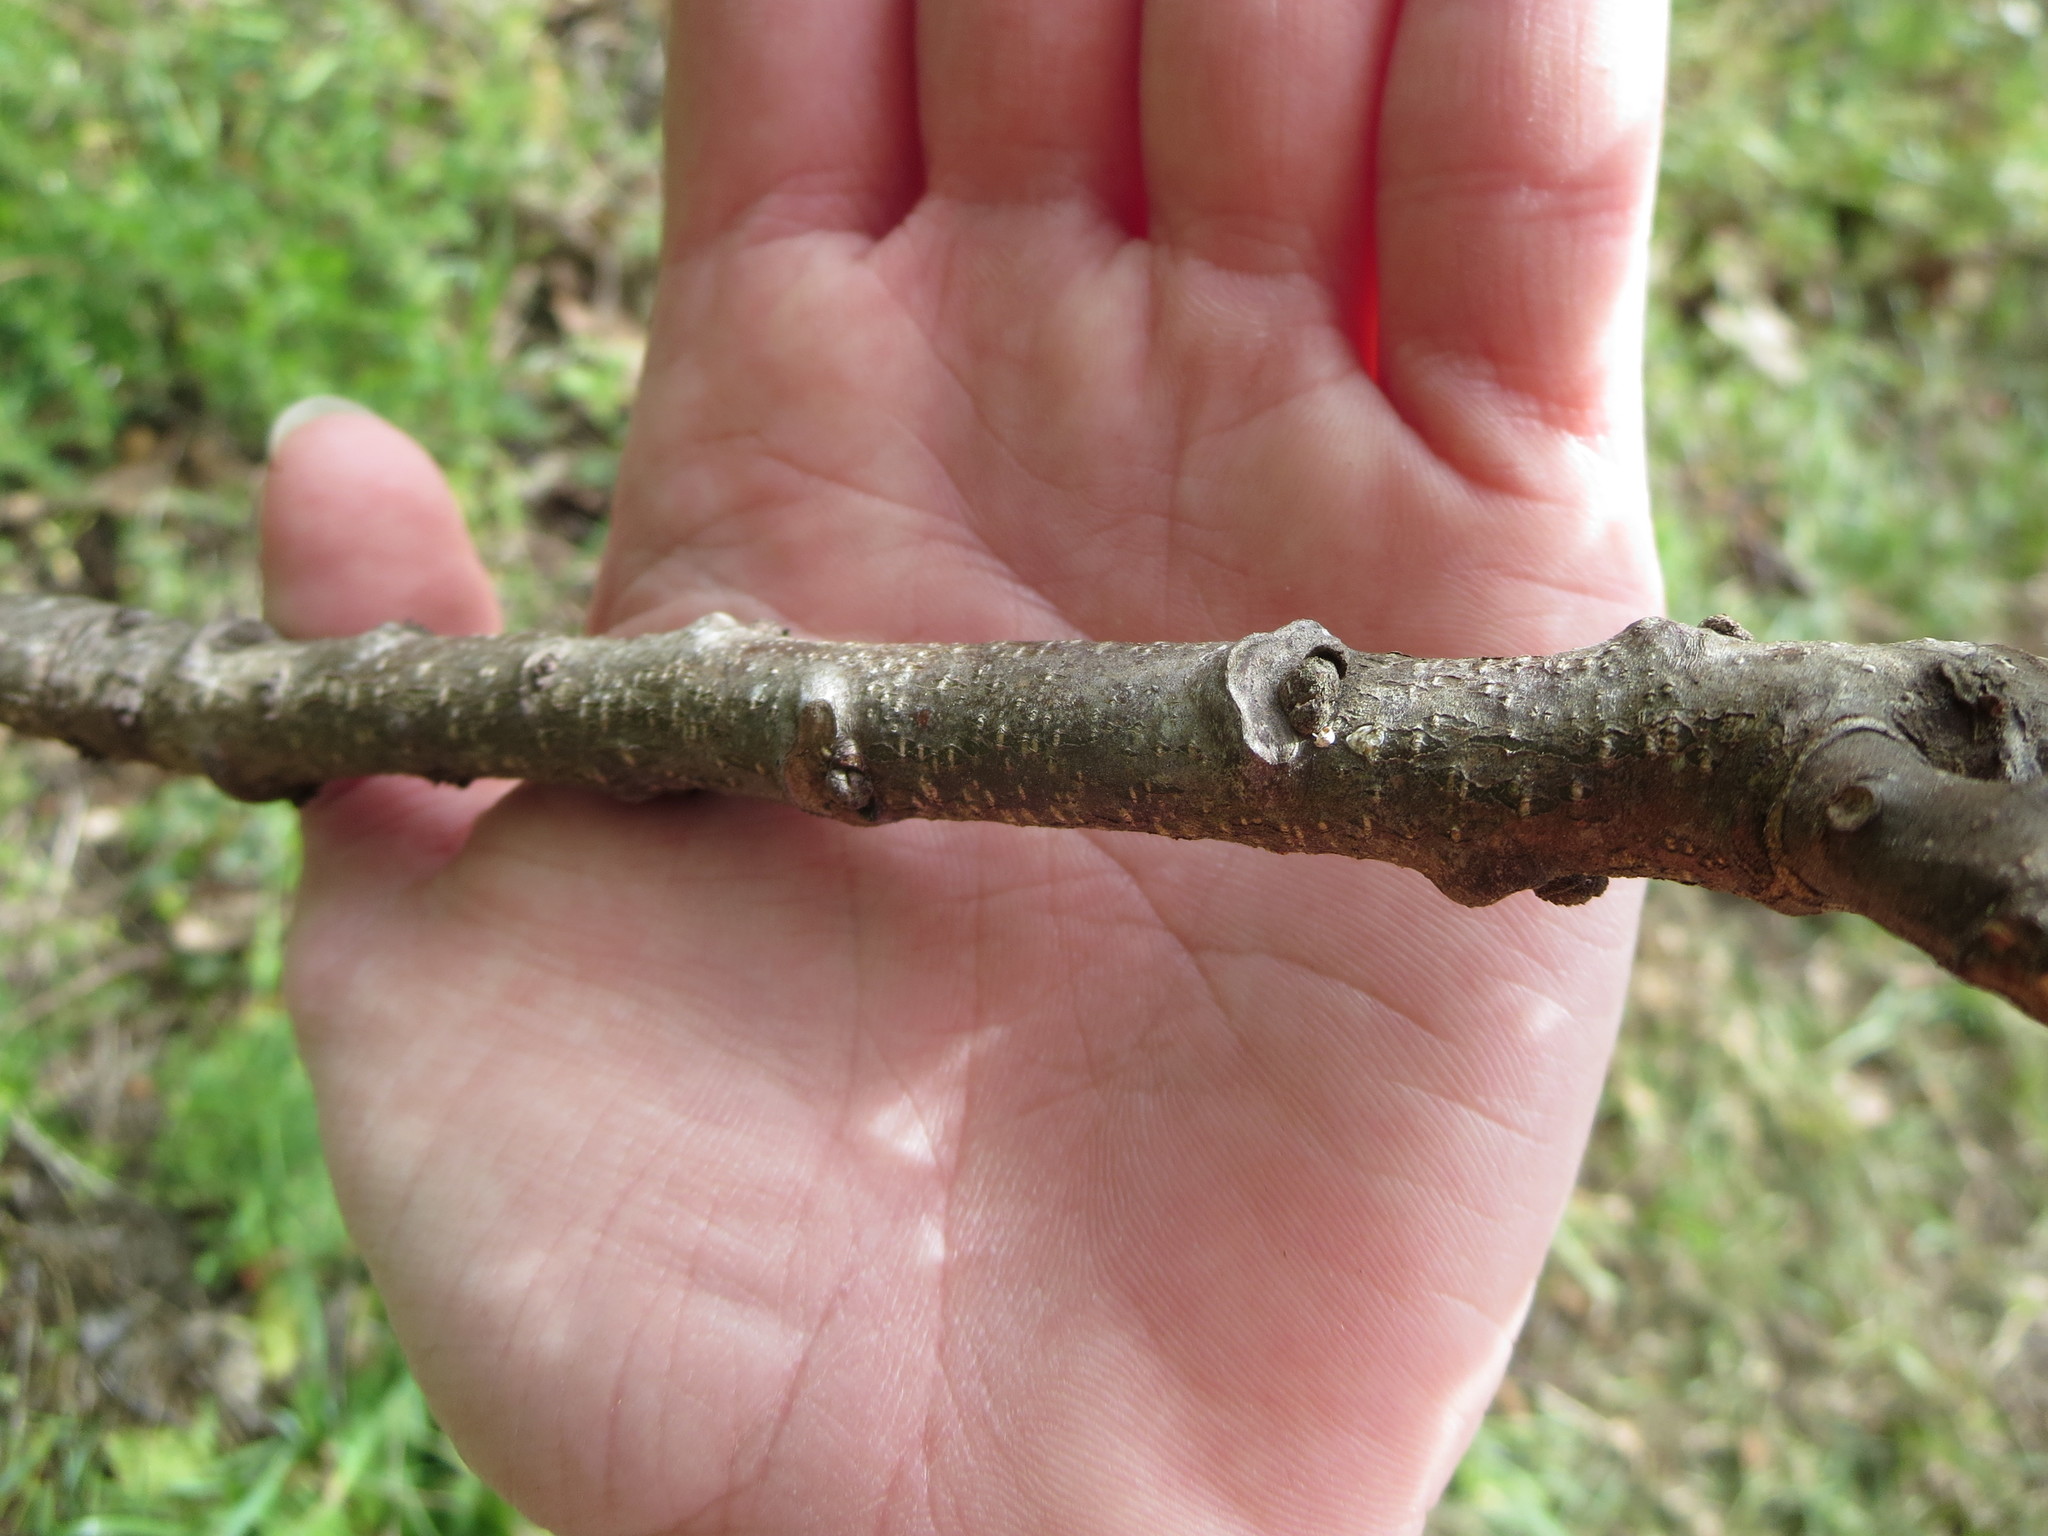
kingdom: Plantae
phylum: Tracheophyta
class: Magnoliopsida
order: Sapindales
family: Meliaceae
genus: Melia
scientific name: Melia azedarach
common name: Chinaberrytree
